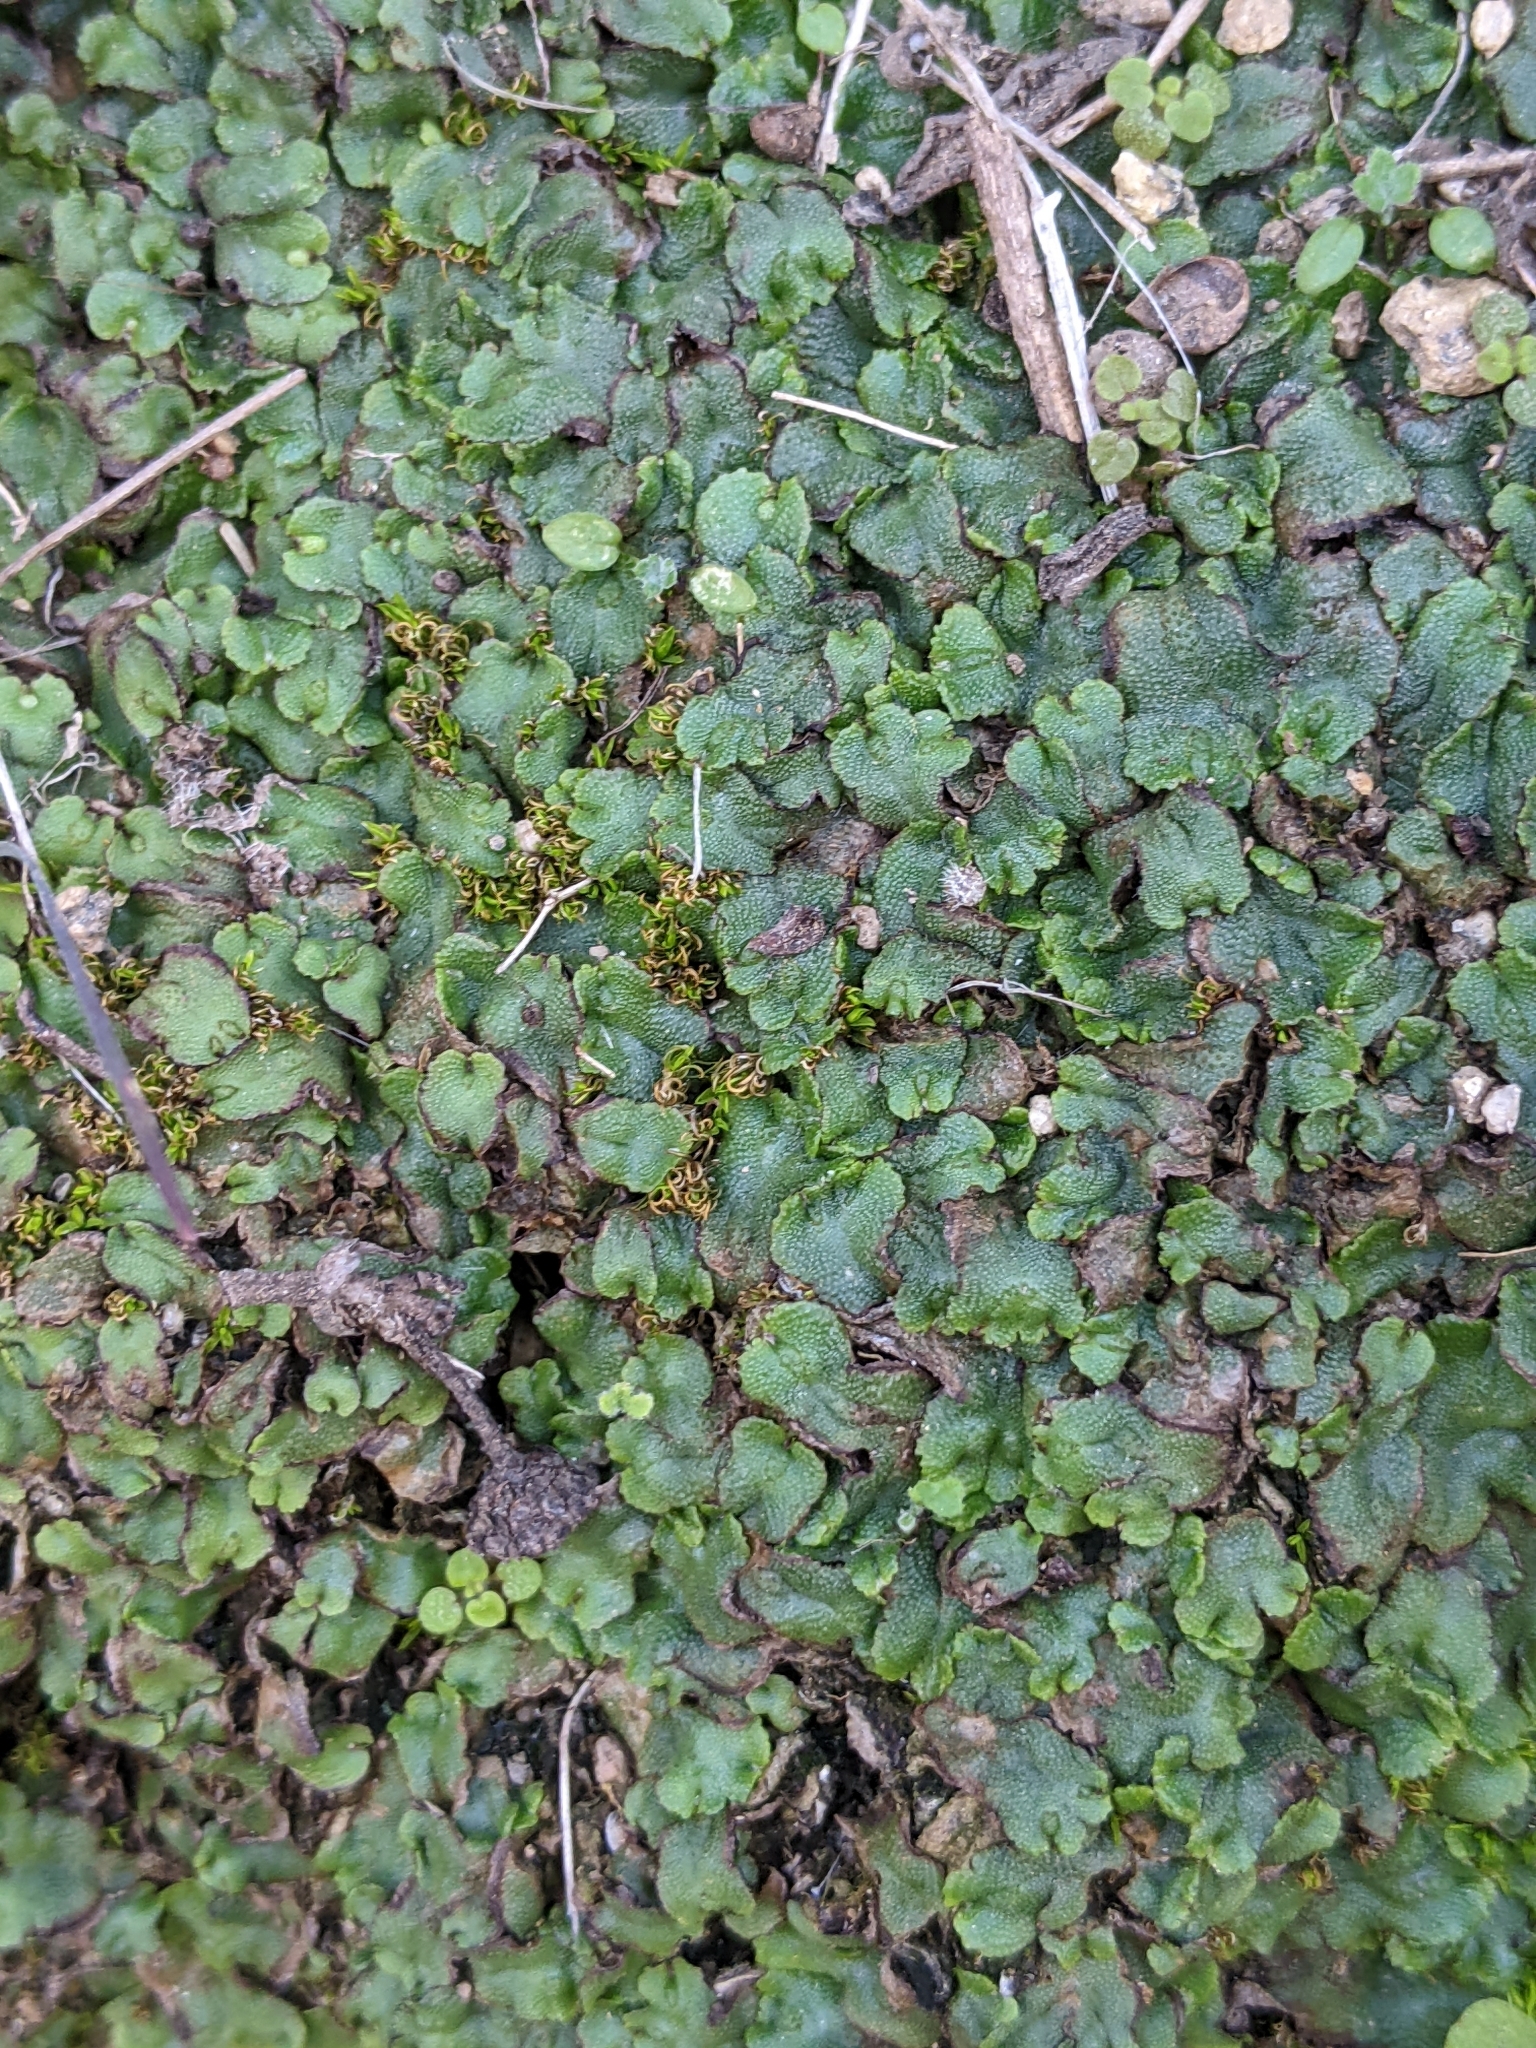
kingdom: Plantae
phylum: Marchantiophyta
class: Marchantiopsida
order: Marchantiales
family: Aytoniaceae
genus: Asterella
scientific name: Asterella californica
